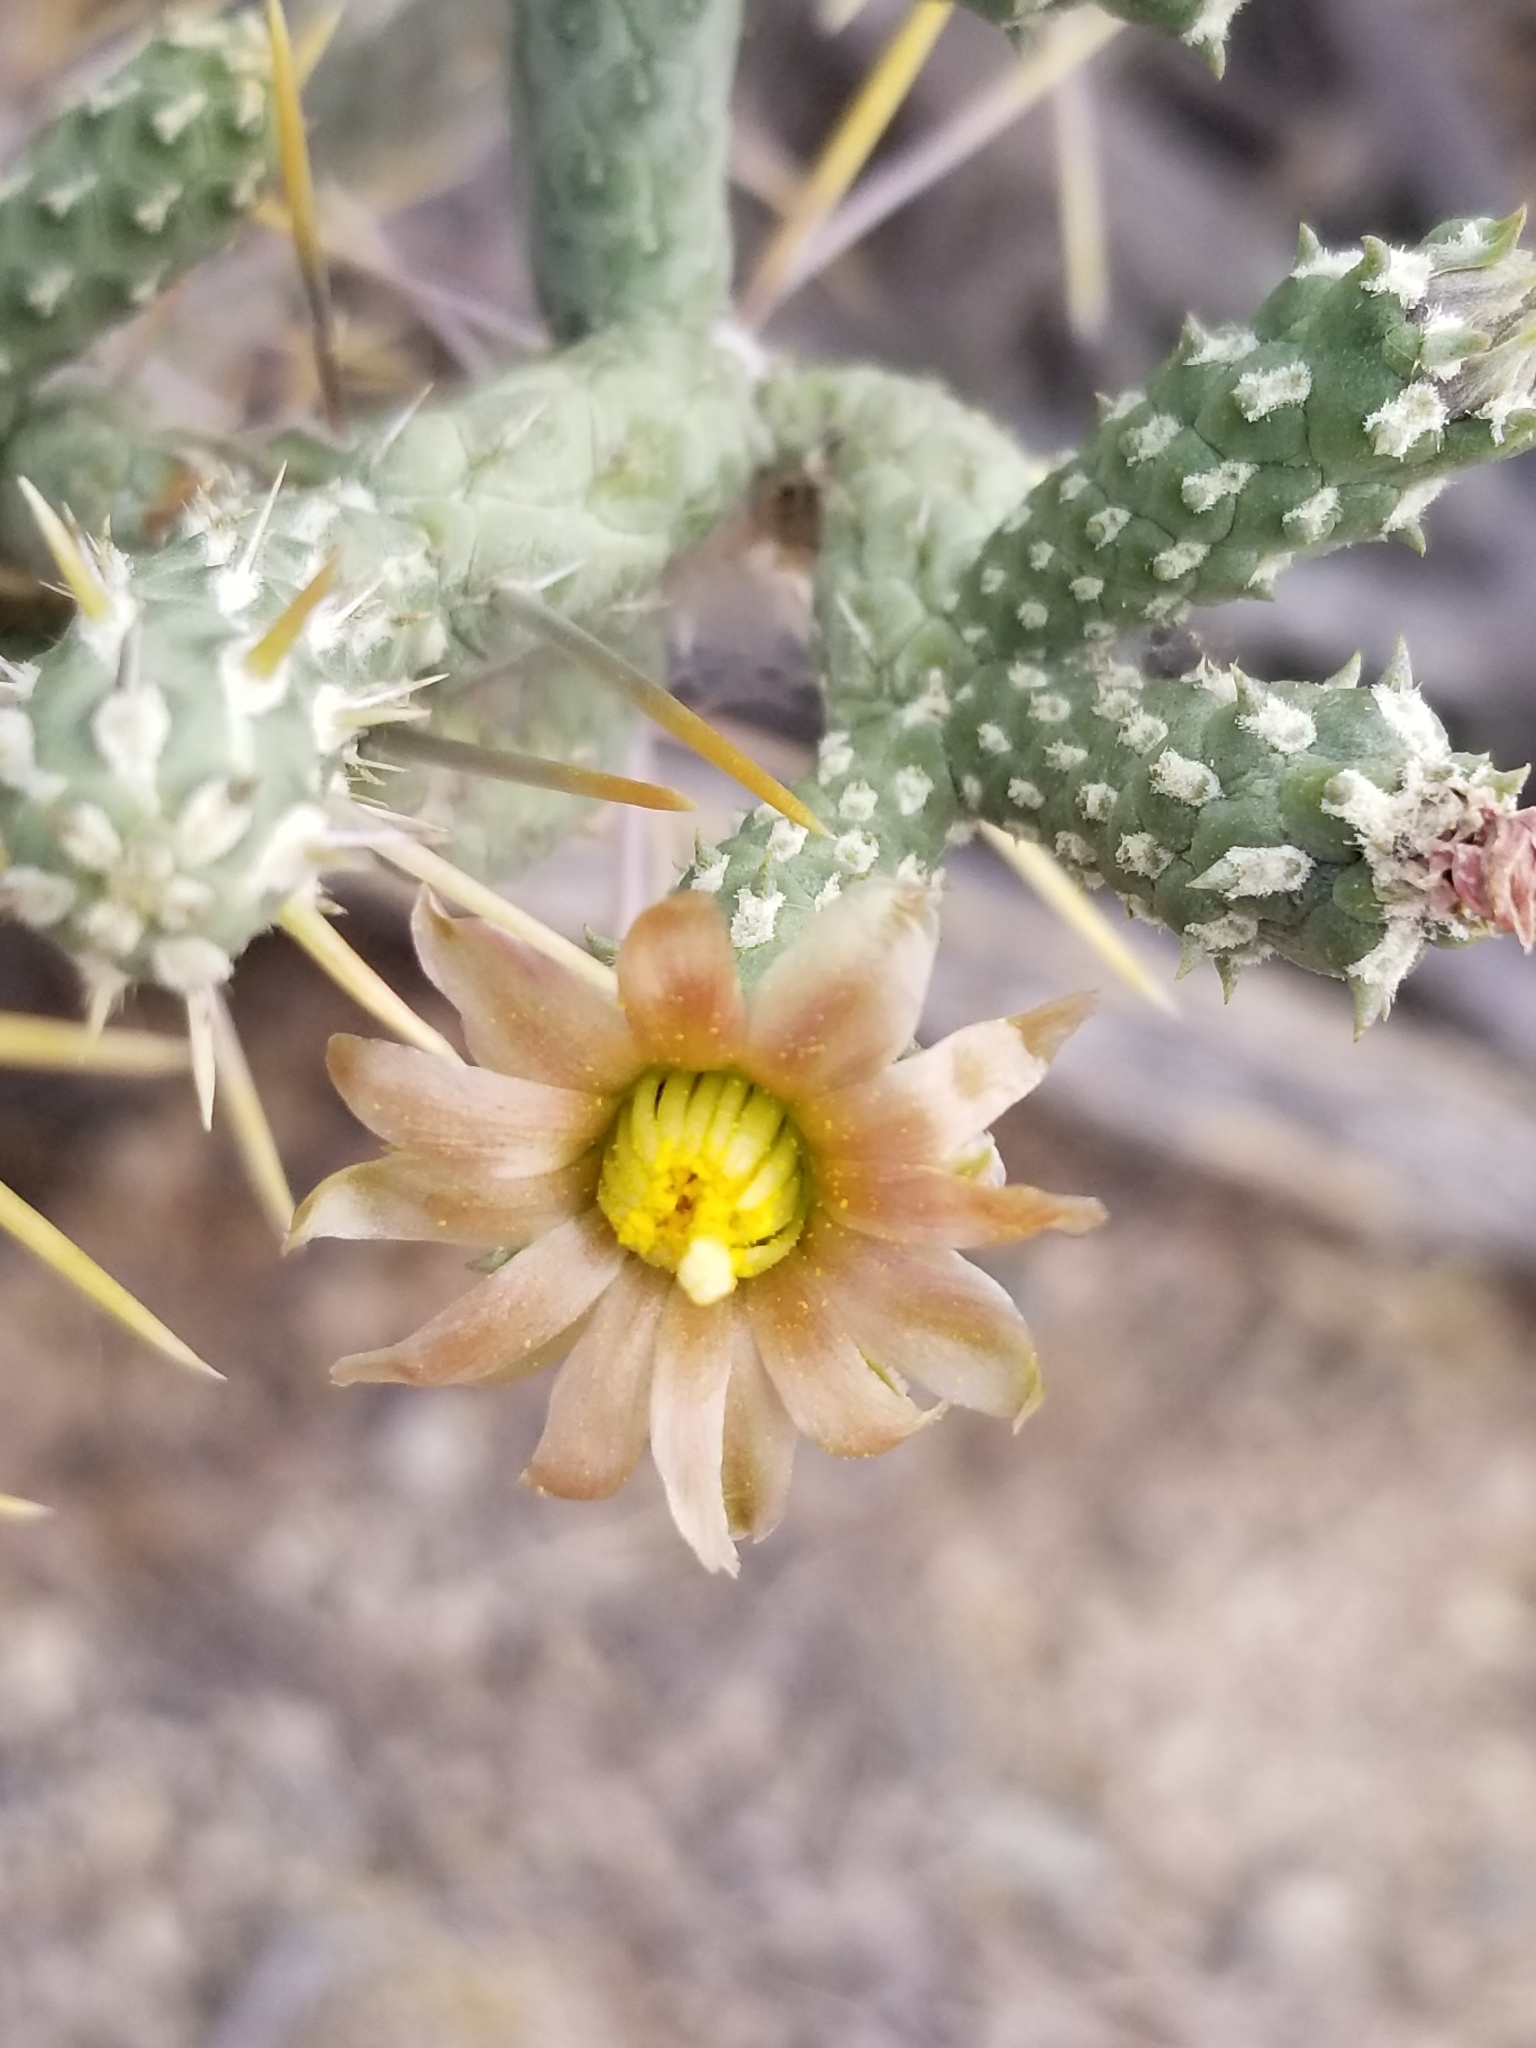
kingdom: Plantae
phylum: Tracheophyta
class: Magnoliopsida
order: Caryophyllales
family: Cactaceae
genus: Cylindropuntia
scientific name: Cylindropuntia ramosissima
